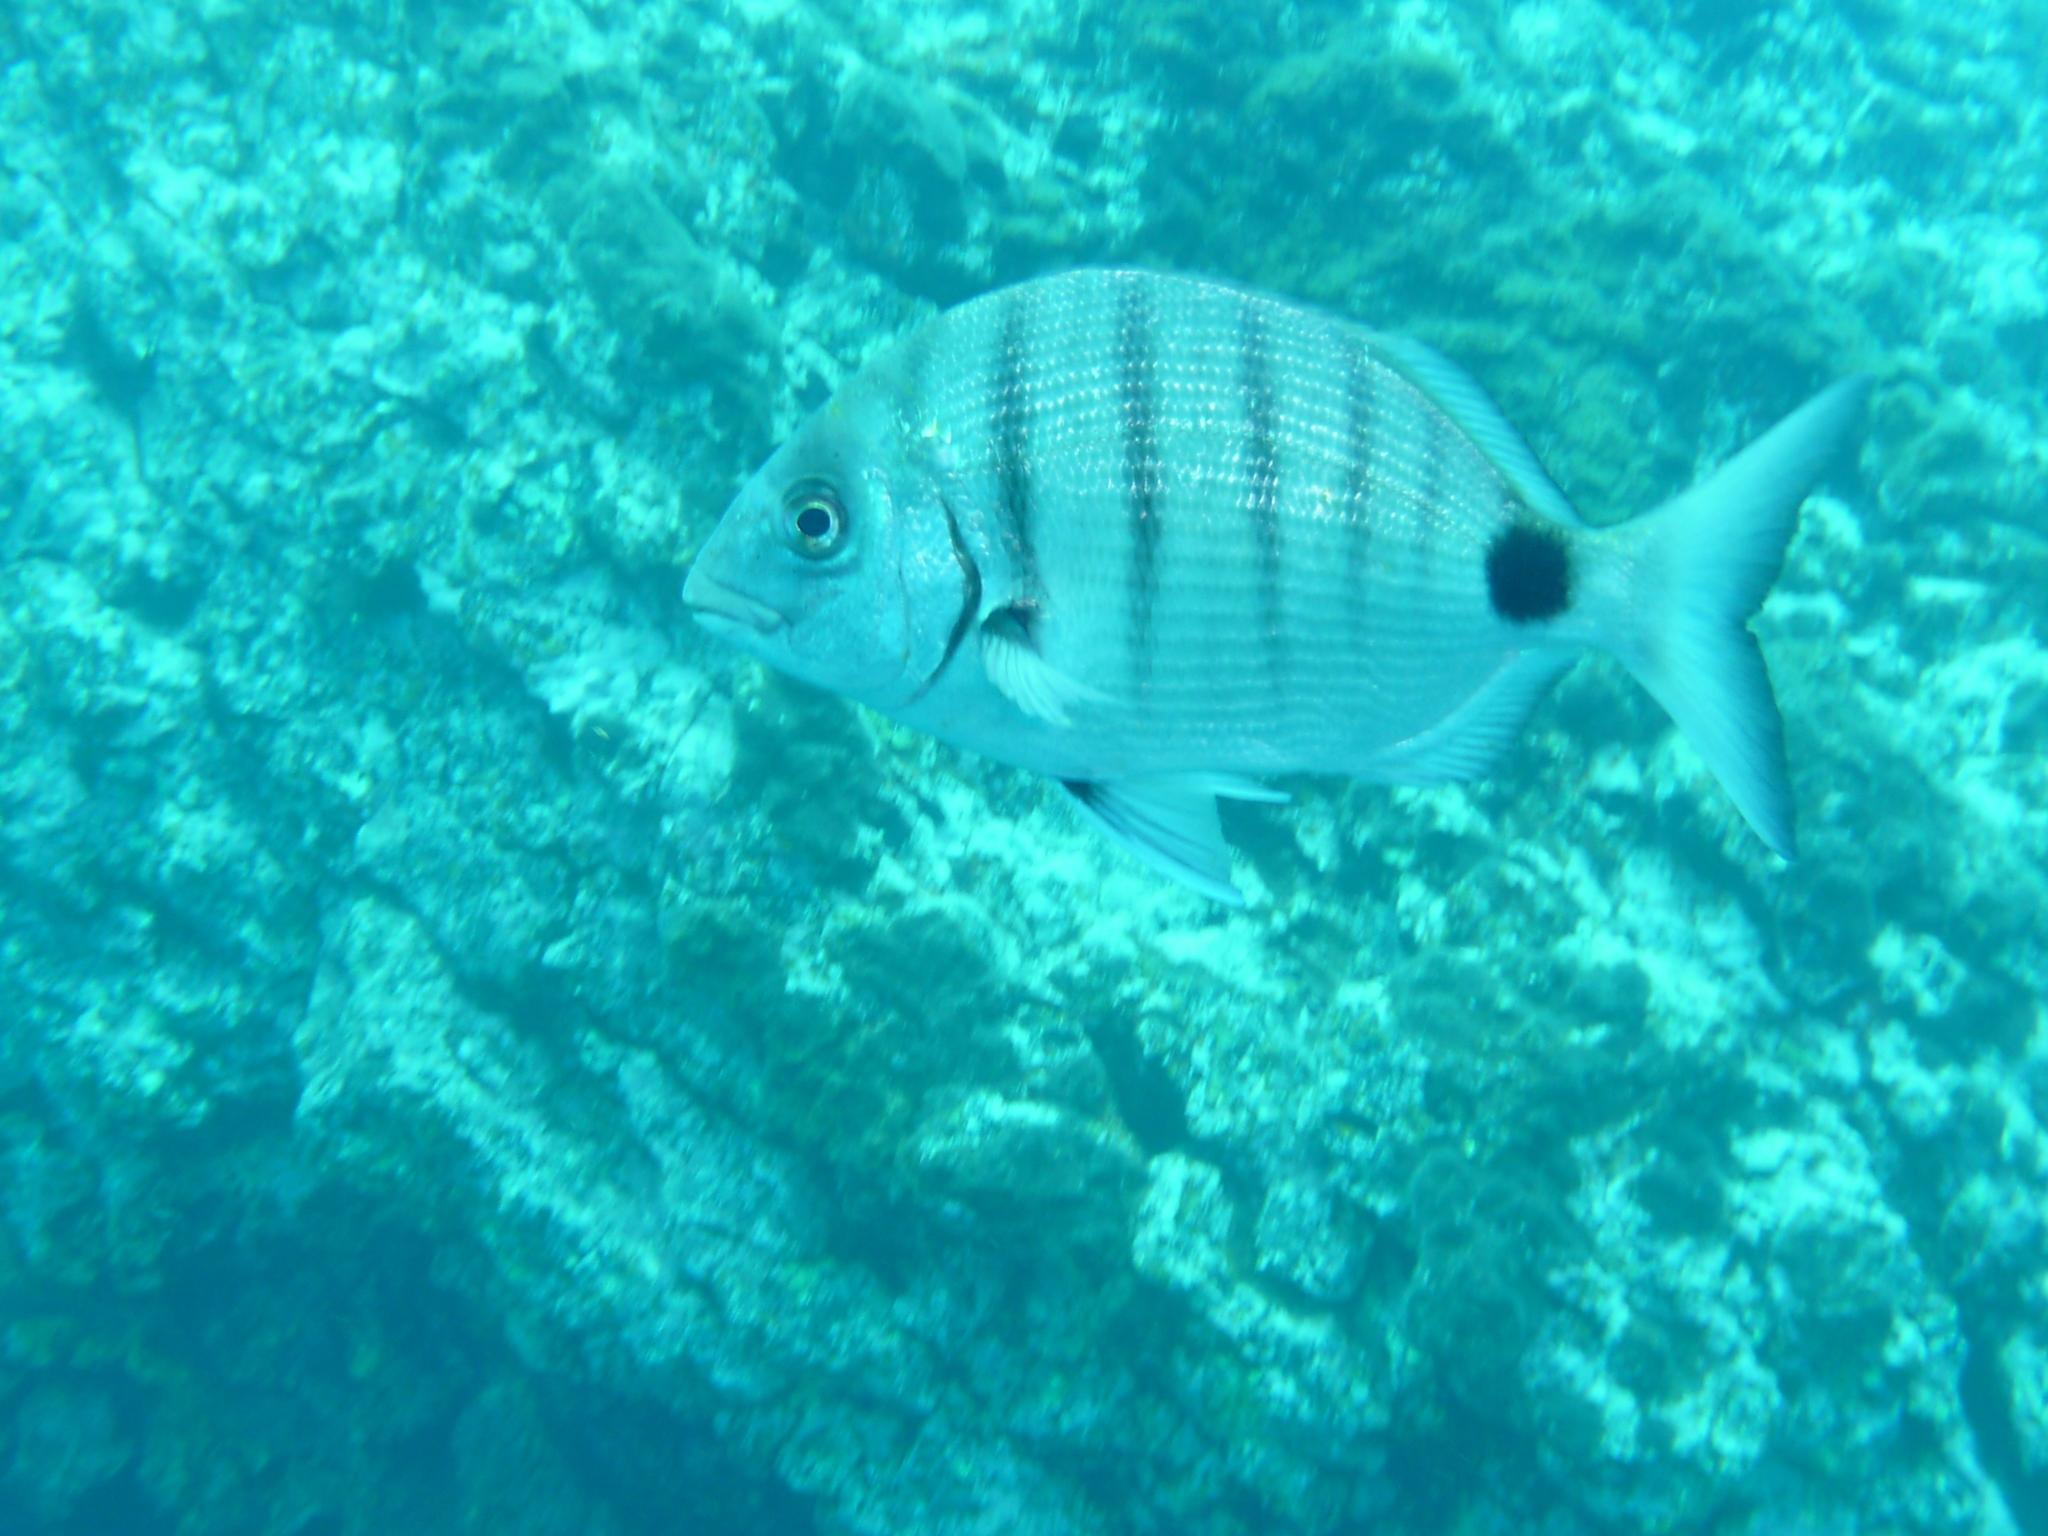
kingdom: Animalia
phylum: Chordata
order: Perciformes
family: Sparidae
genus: Diplodus
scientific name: Diplodus cadenati
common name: Moroccan white seabream
